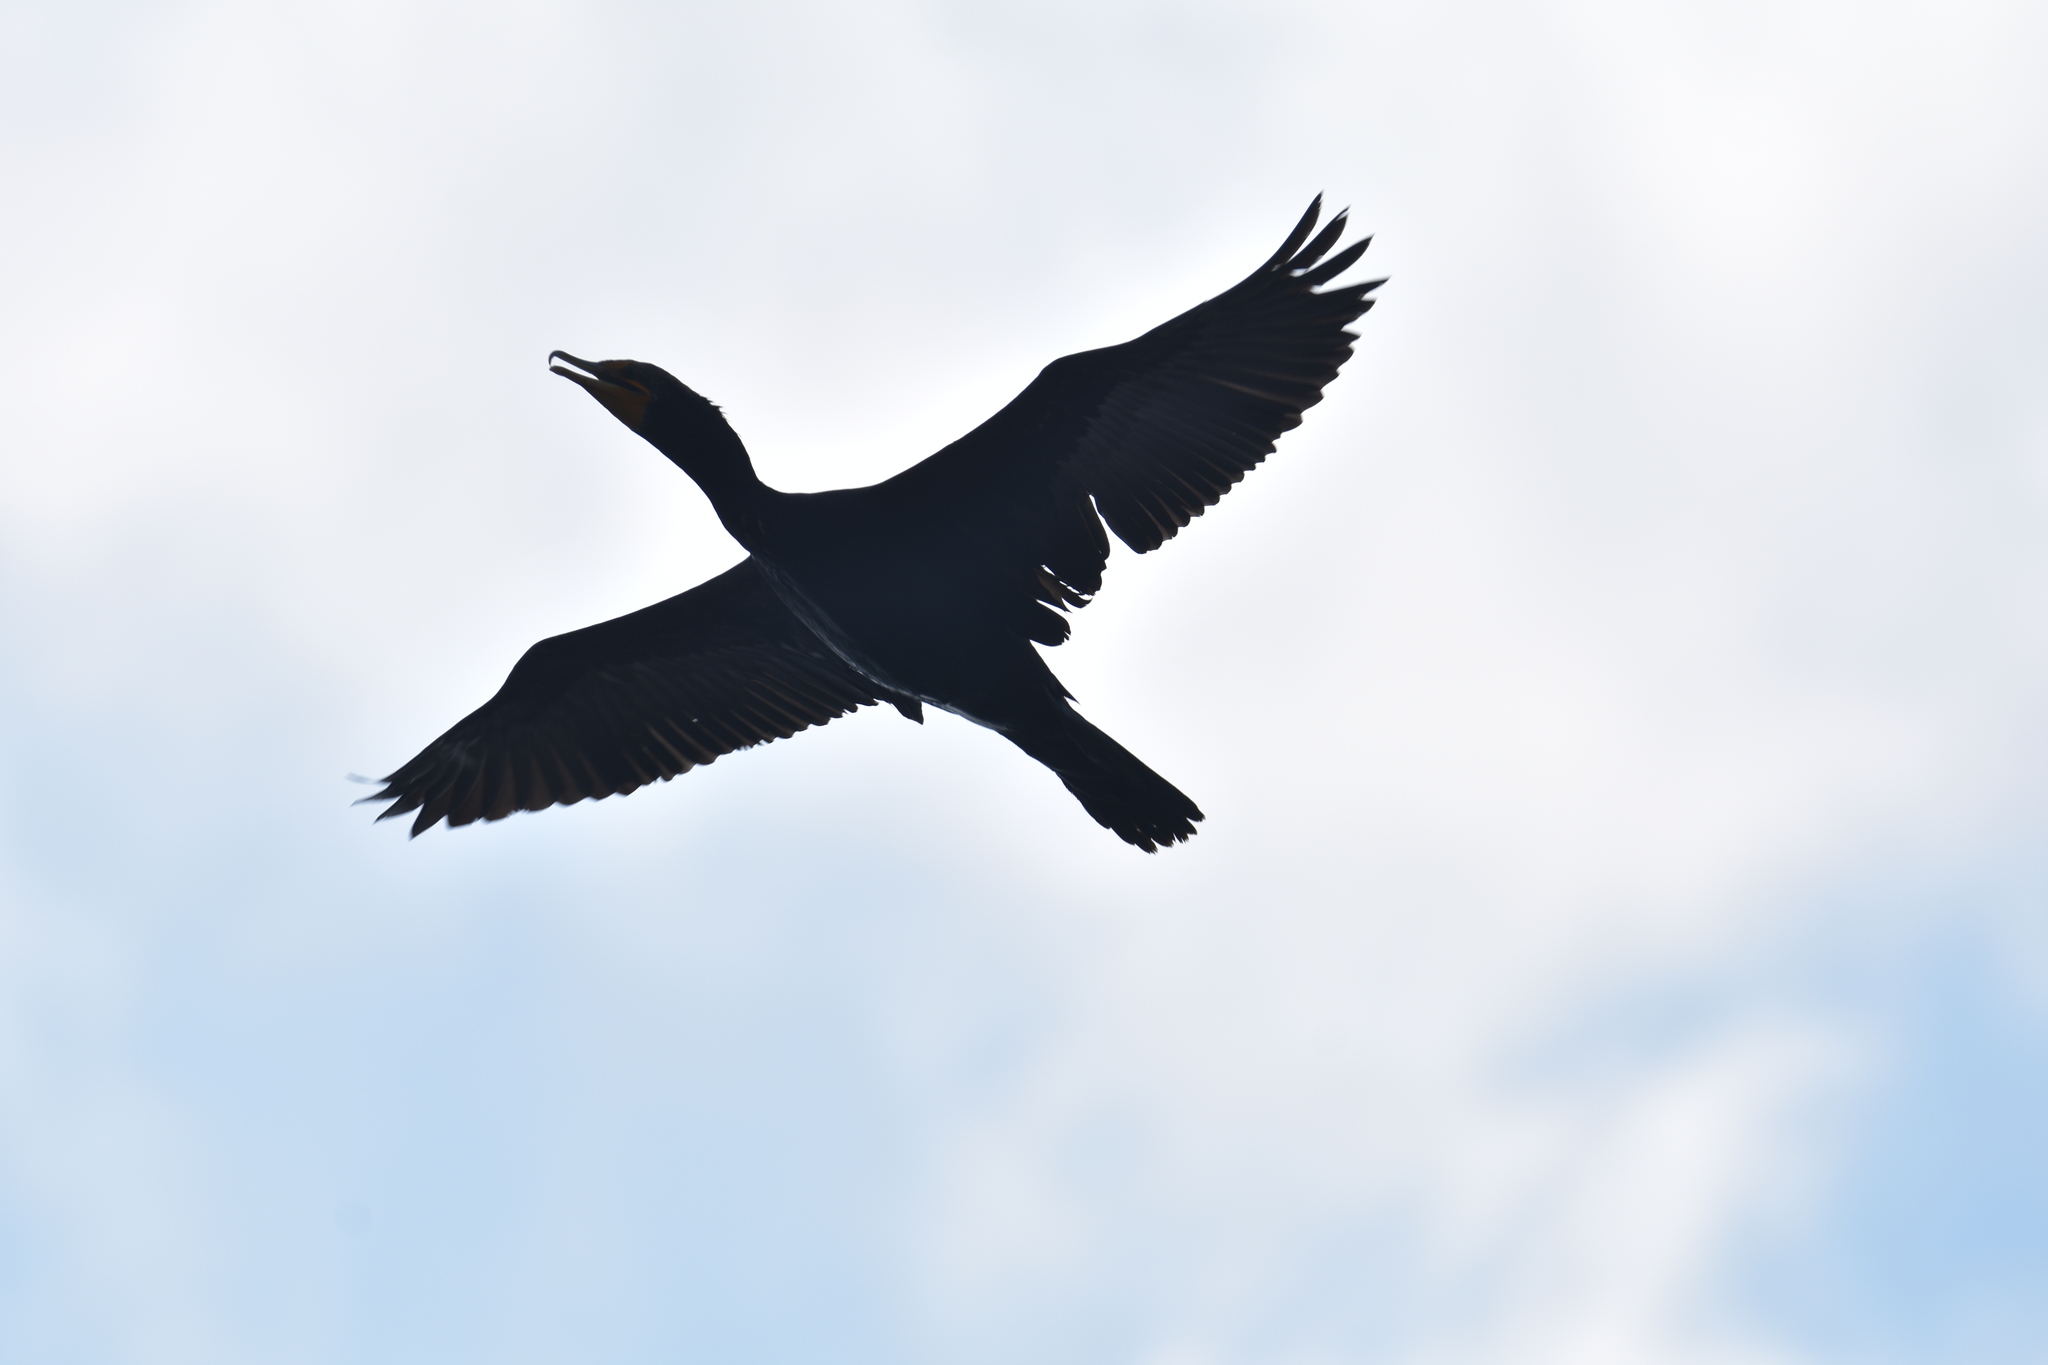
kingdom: Animalia
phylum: Chordata
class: Aves
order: Suliformes
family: Phalacrocoracidae
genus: Phalacrocorax
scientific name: Phalacrocorax auritus
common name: Double-crested cormorant
